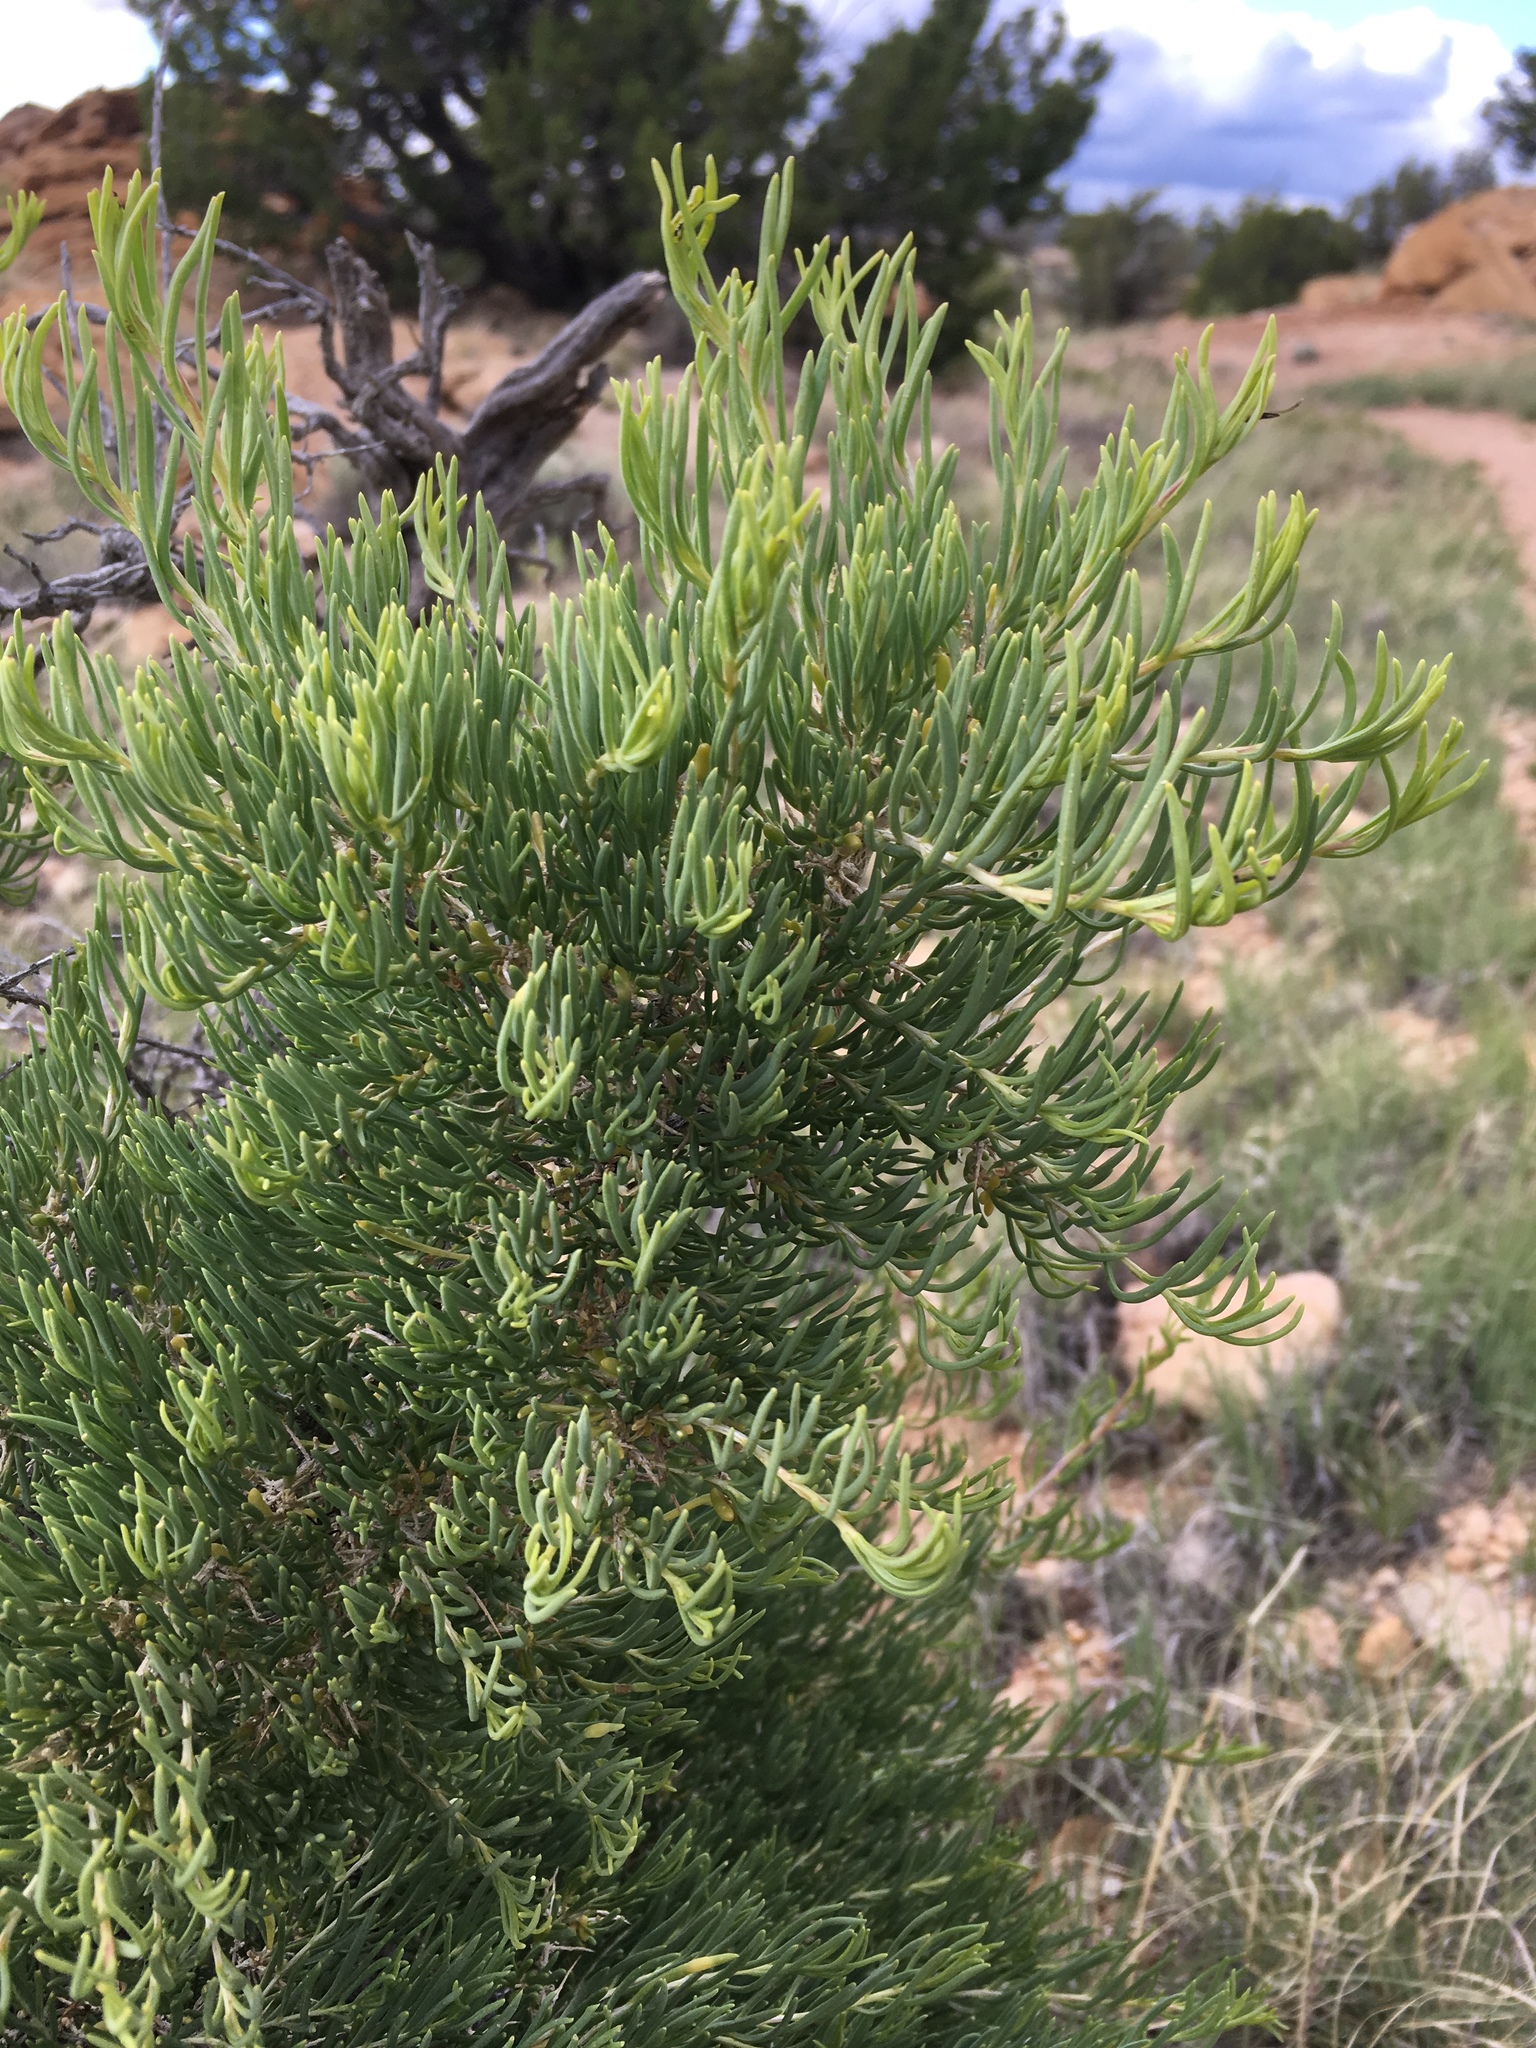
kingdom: Plantae
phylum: Tracheophyta
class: Magnoliopsida
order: Caryophyllales
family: Sarcobataceae
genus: Sarcobatus
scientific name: Sarcobatus vermiculatus
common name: Greasewood
